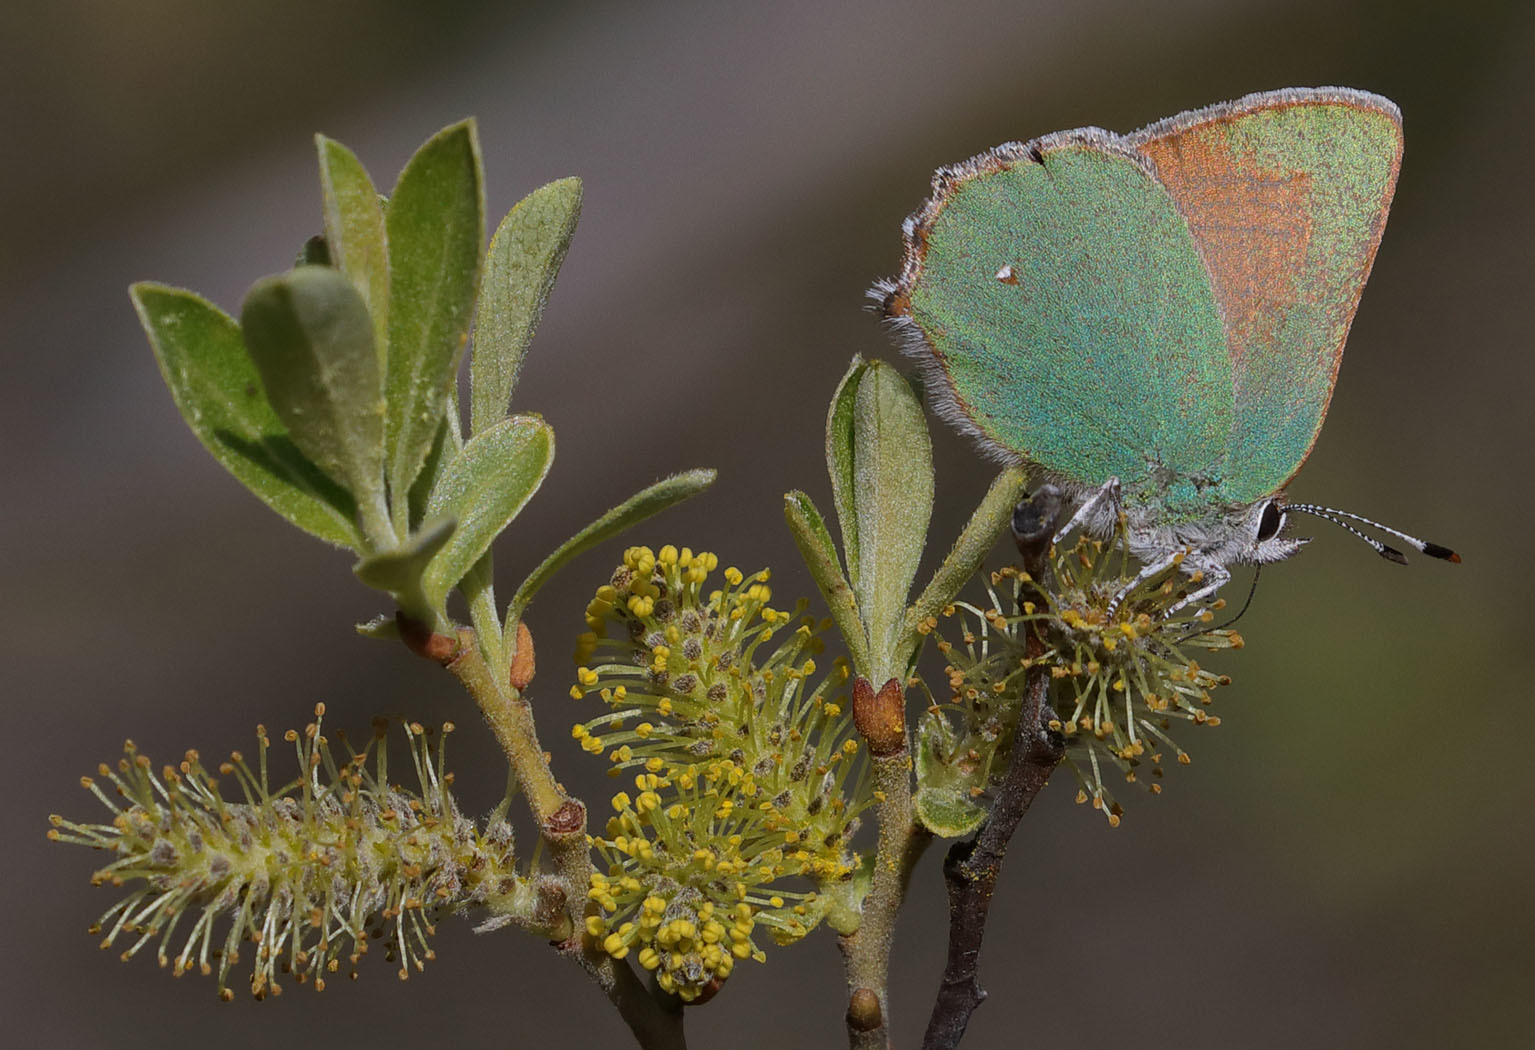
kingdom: Animalia
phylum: Arthropoda
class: Insecta
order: Lepidoptera
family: Lycaenidae
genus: Callophrys
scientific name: Callophrys dumetorum
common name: Bramble hairstreak
